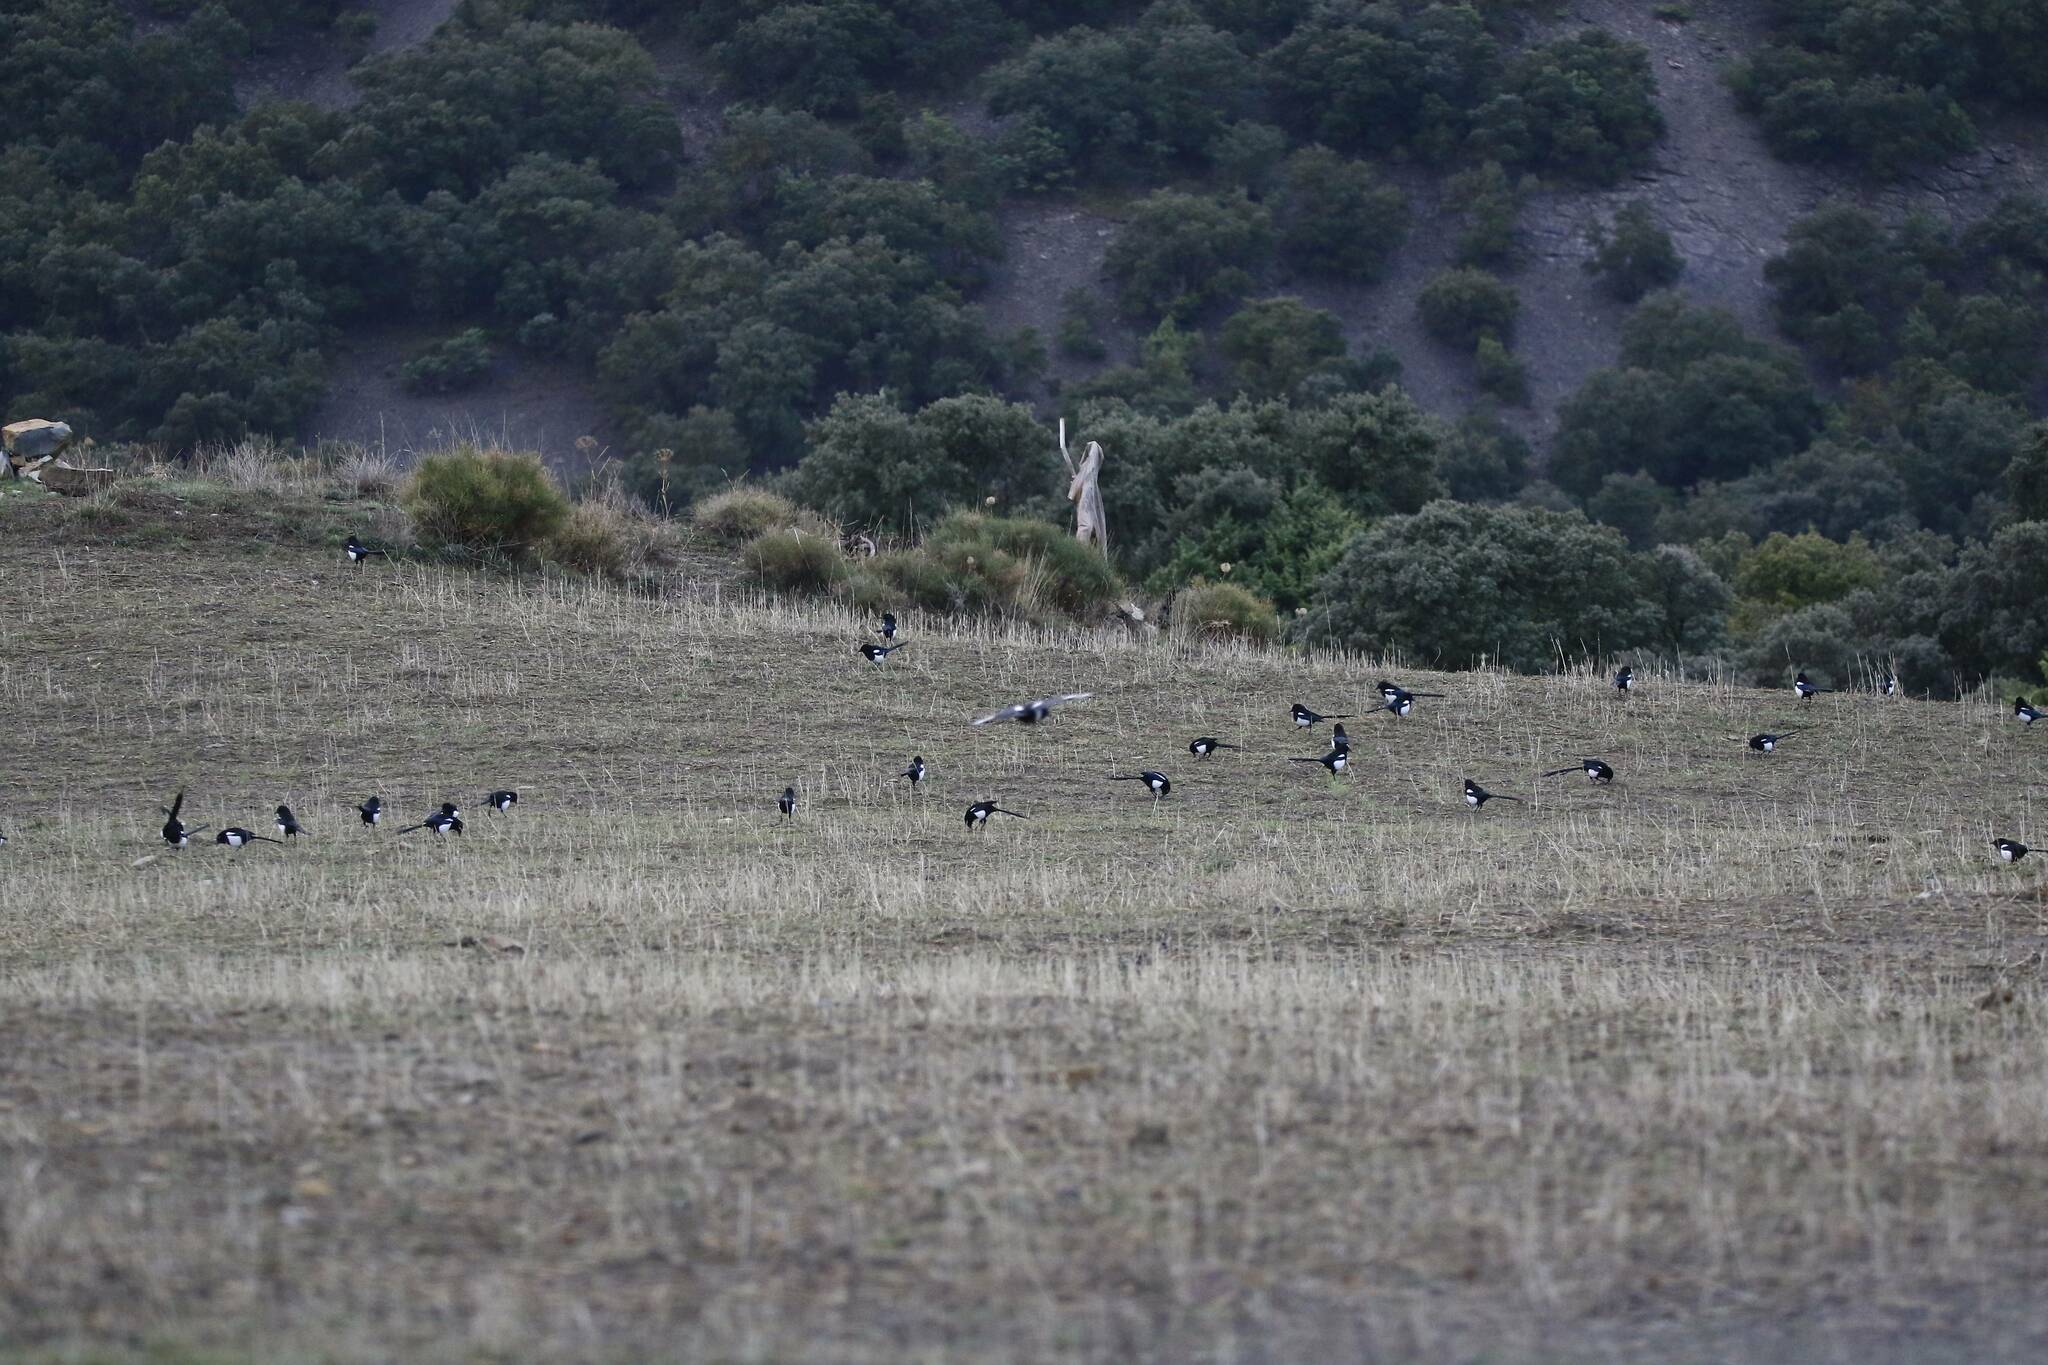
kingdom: Animalia
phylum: Chordata
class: Aves
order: Passeriformes
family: Corvidae
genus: Pica
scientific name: Pica mauritanica
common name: Maghreb magpie
